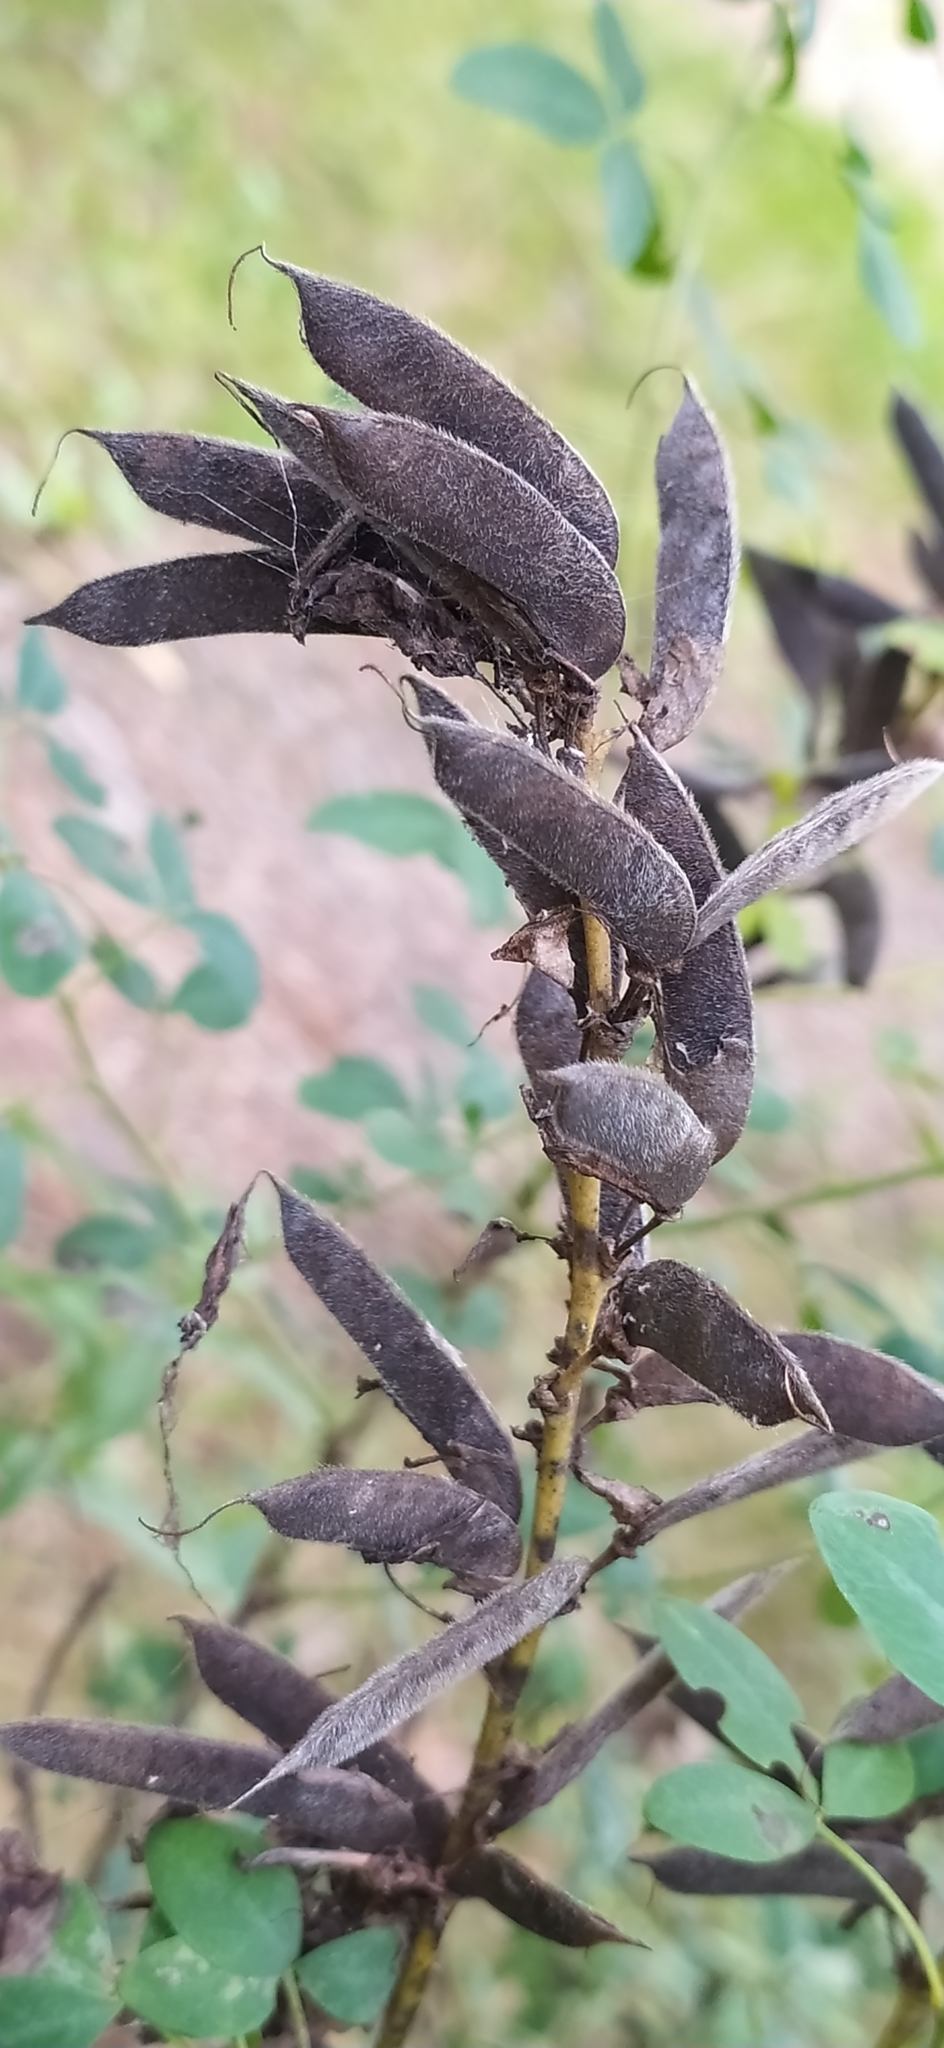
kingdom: Plantae
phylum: Tracheophyta
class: Magnoliopsida
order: Fabales
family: Fabaceae
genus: Chamaecytisus
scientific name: Chamaecytisus ruthenicus
